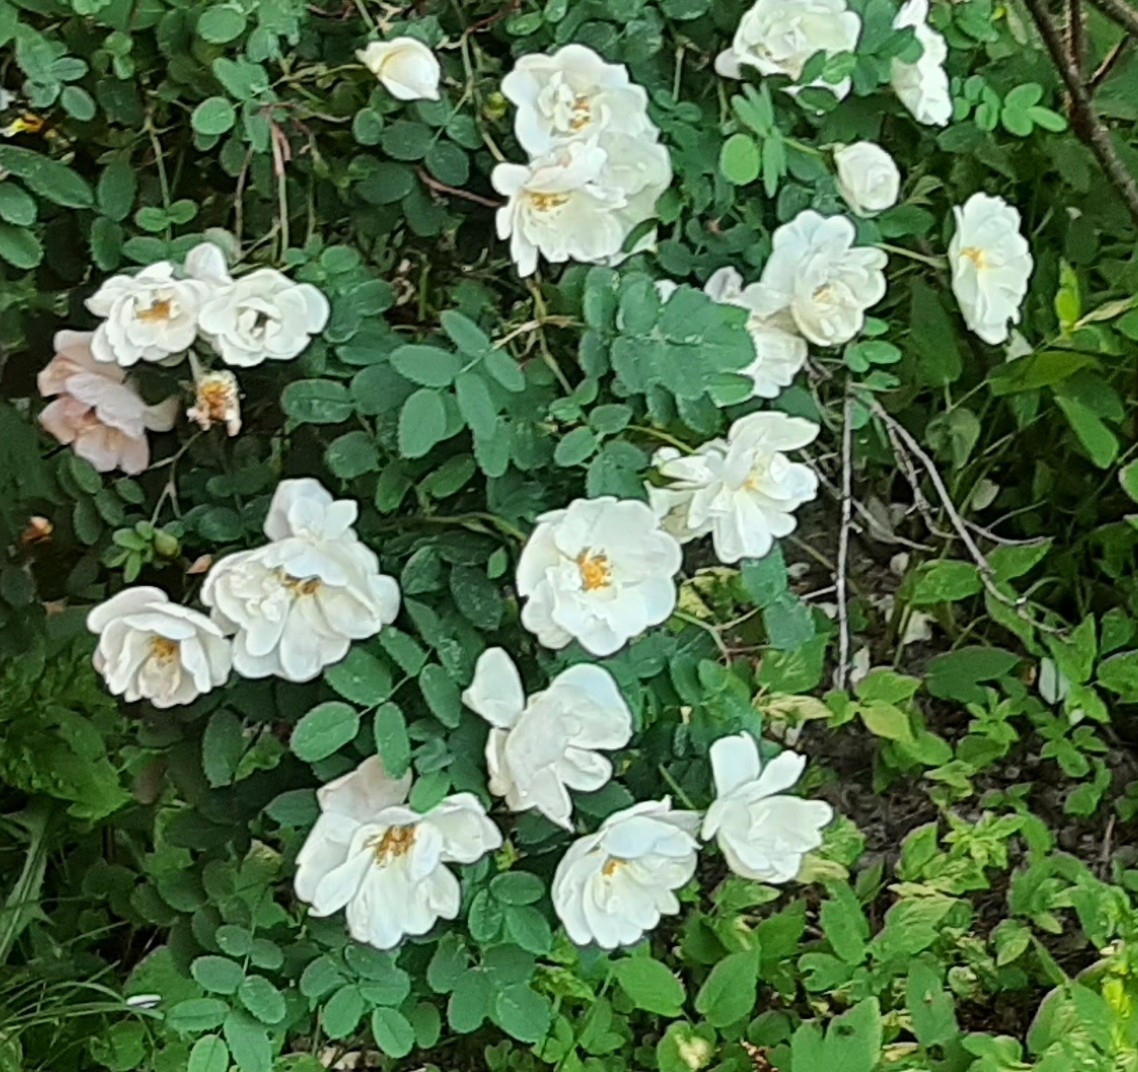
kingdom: Plantae
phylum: Tracheophyta
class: Magnoliopsida
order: Rosales
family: Rosaceae
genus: Rosa
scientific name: Rosa spinosissima
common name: Burnet rose
